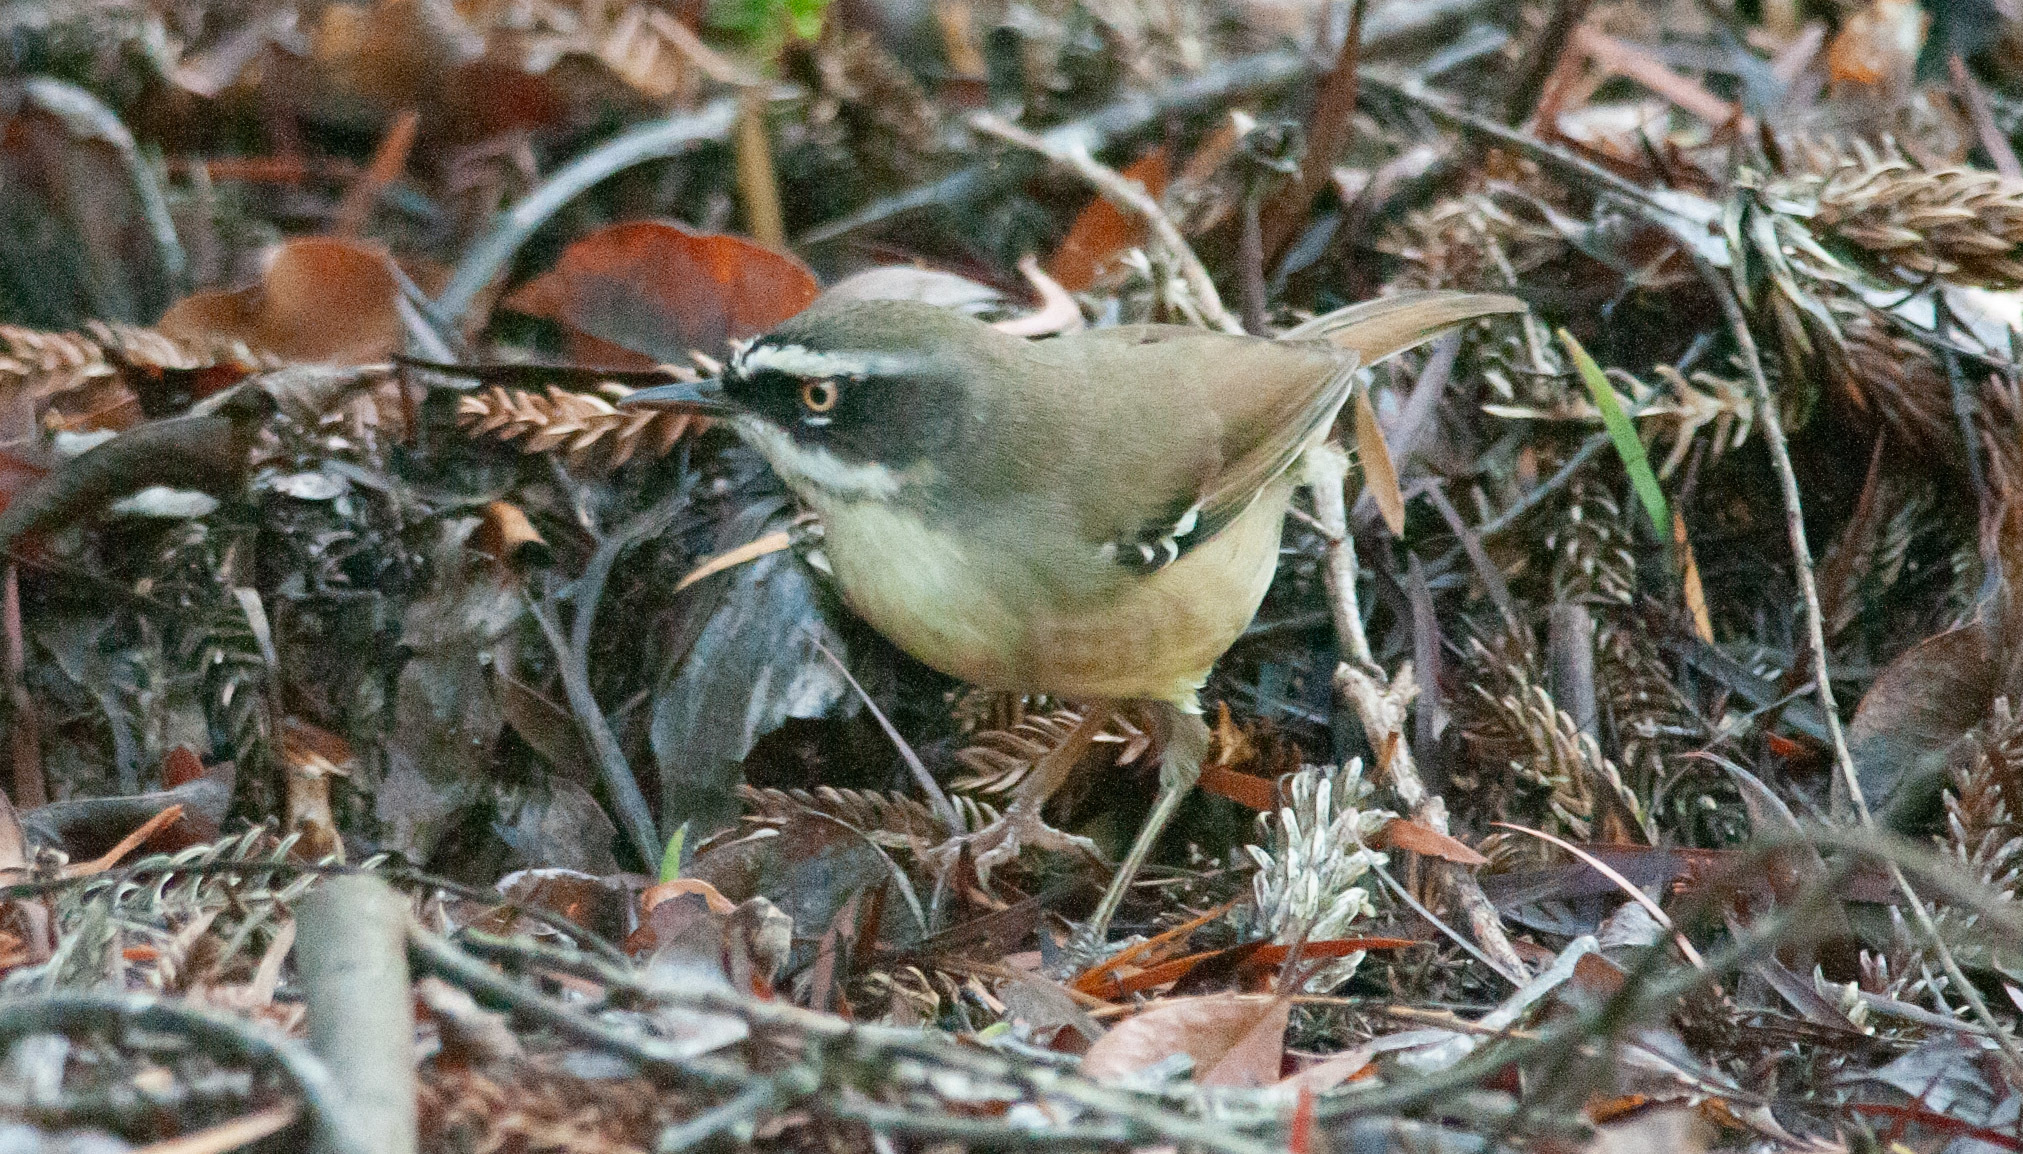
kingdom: Animalia
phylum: Chordata
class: Aves
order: Passeriformes
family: Acanthizidae
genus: Sericornis
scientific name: Sericornis frontalis
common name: White-browed scrubwren
